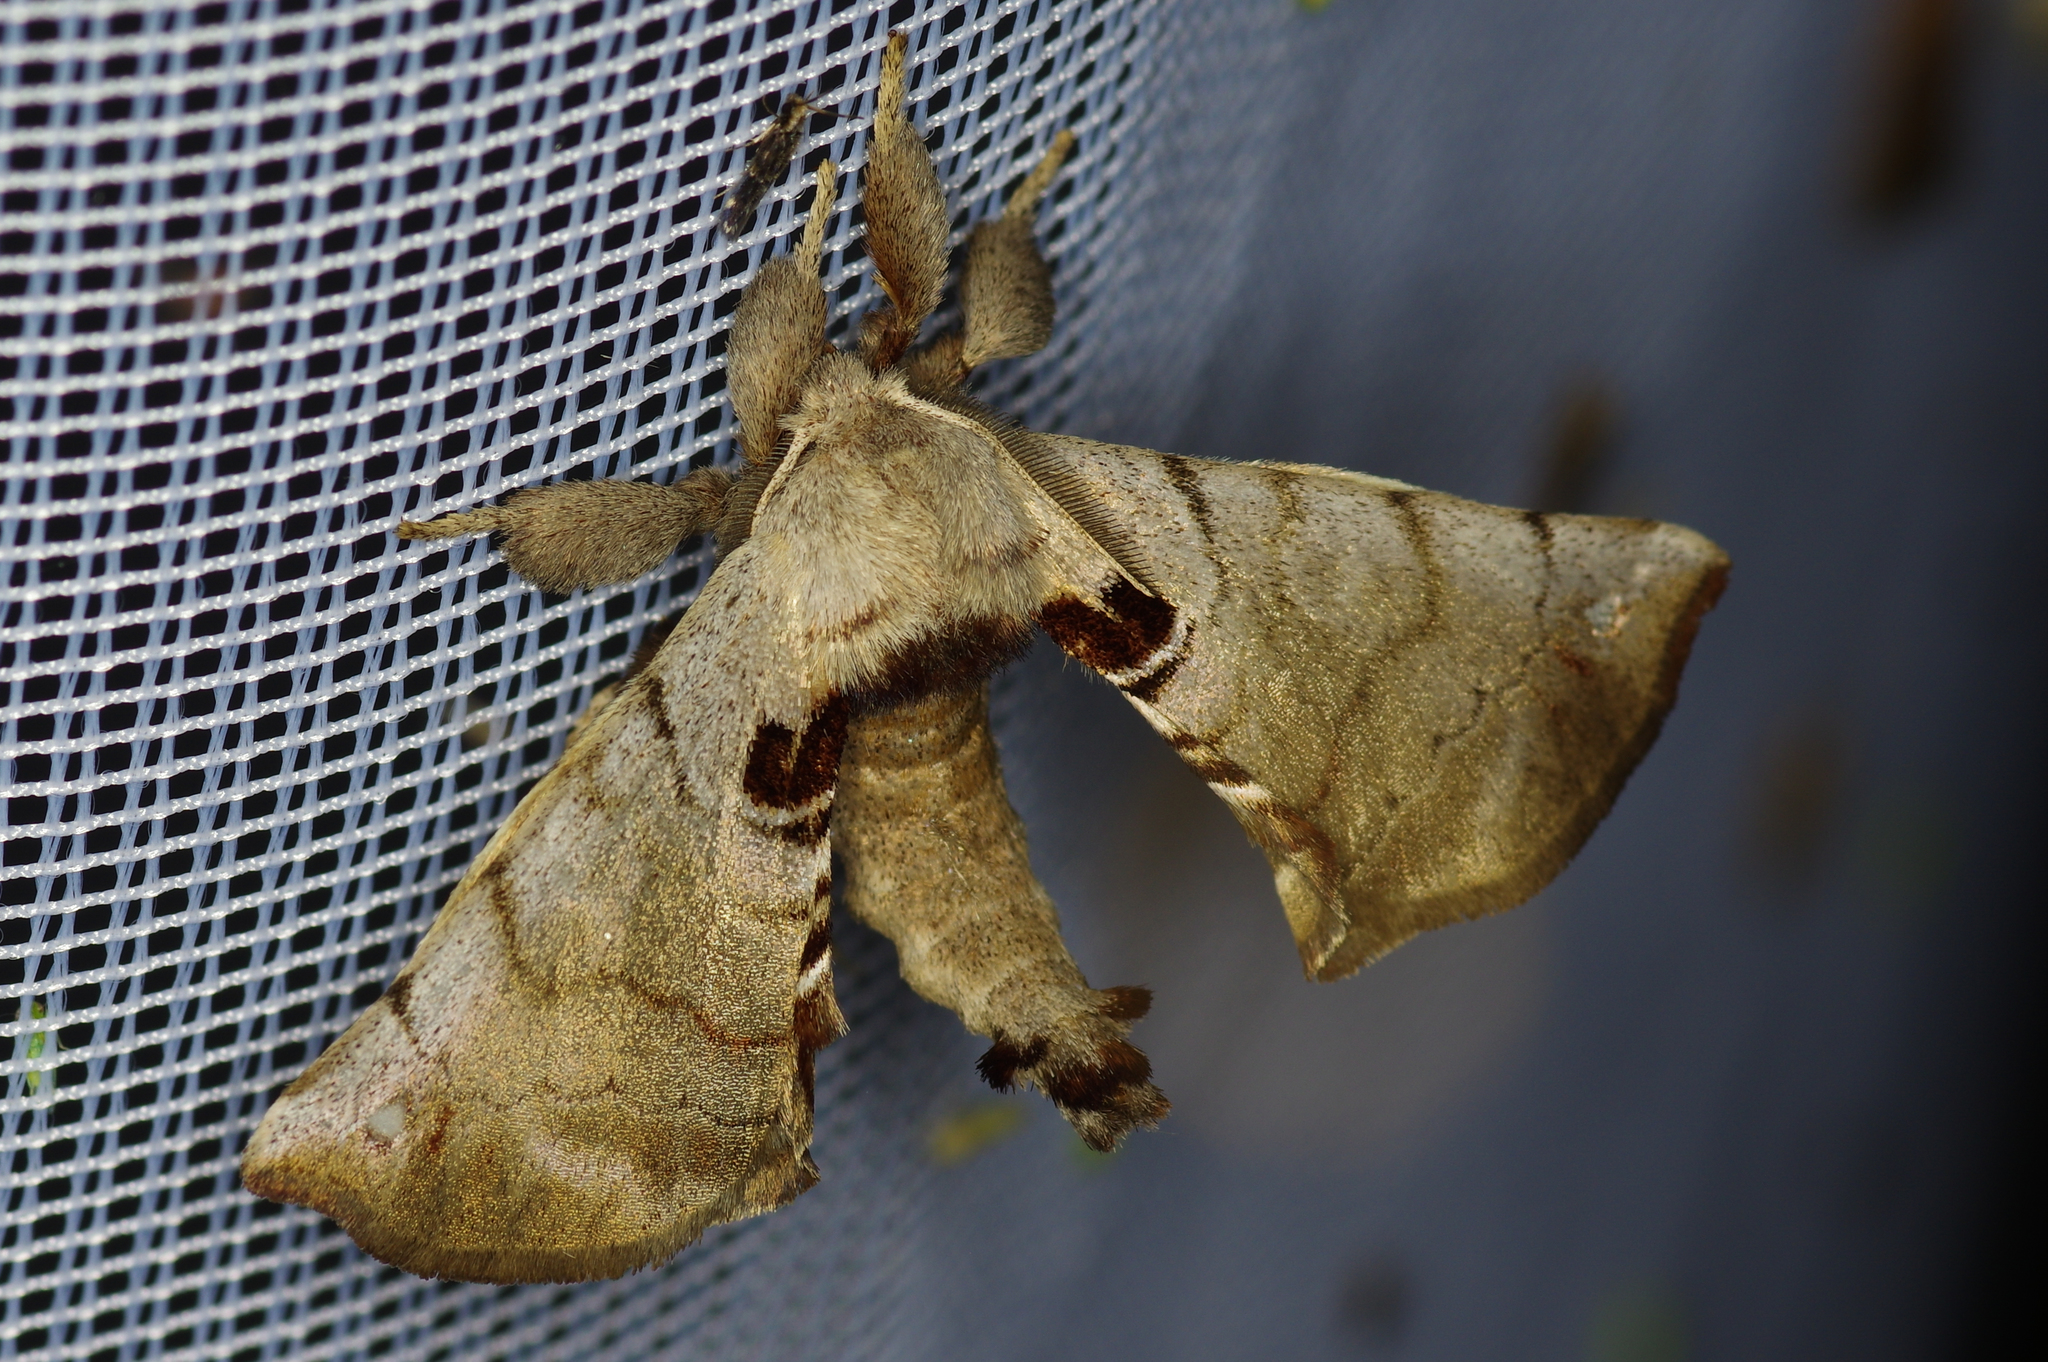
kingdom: Animalia
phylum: Arthropoda
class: Insecta
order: Lepidoptera
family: Apatelodidae
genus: Hygrochroa
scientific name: Hygrochroa Apatelodes torrefacta
